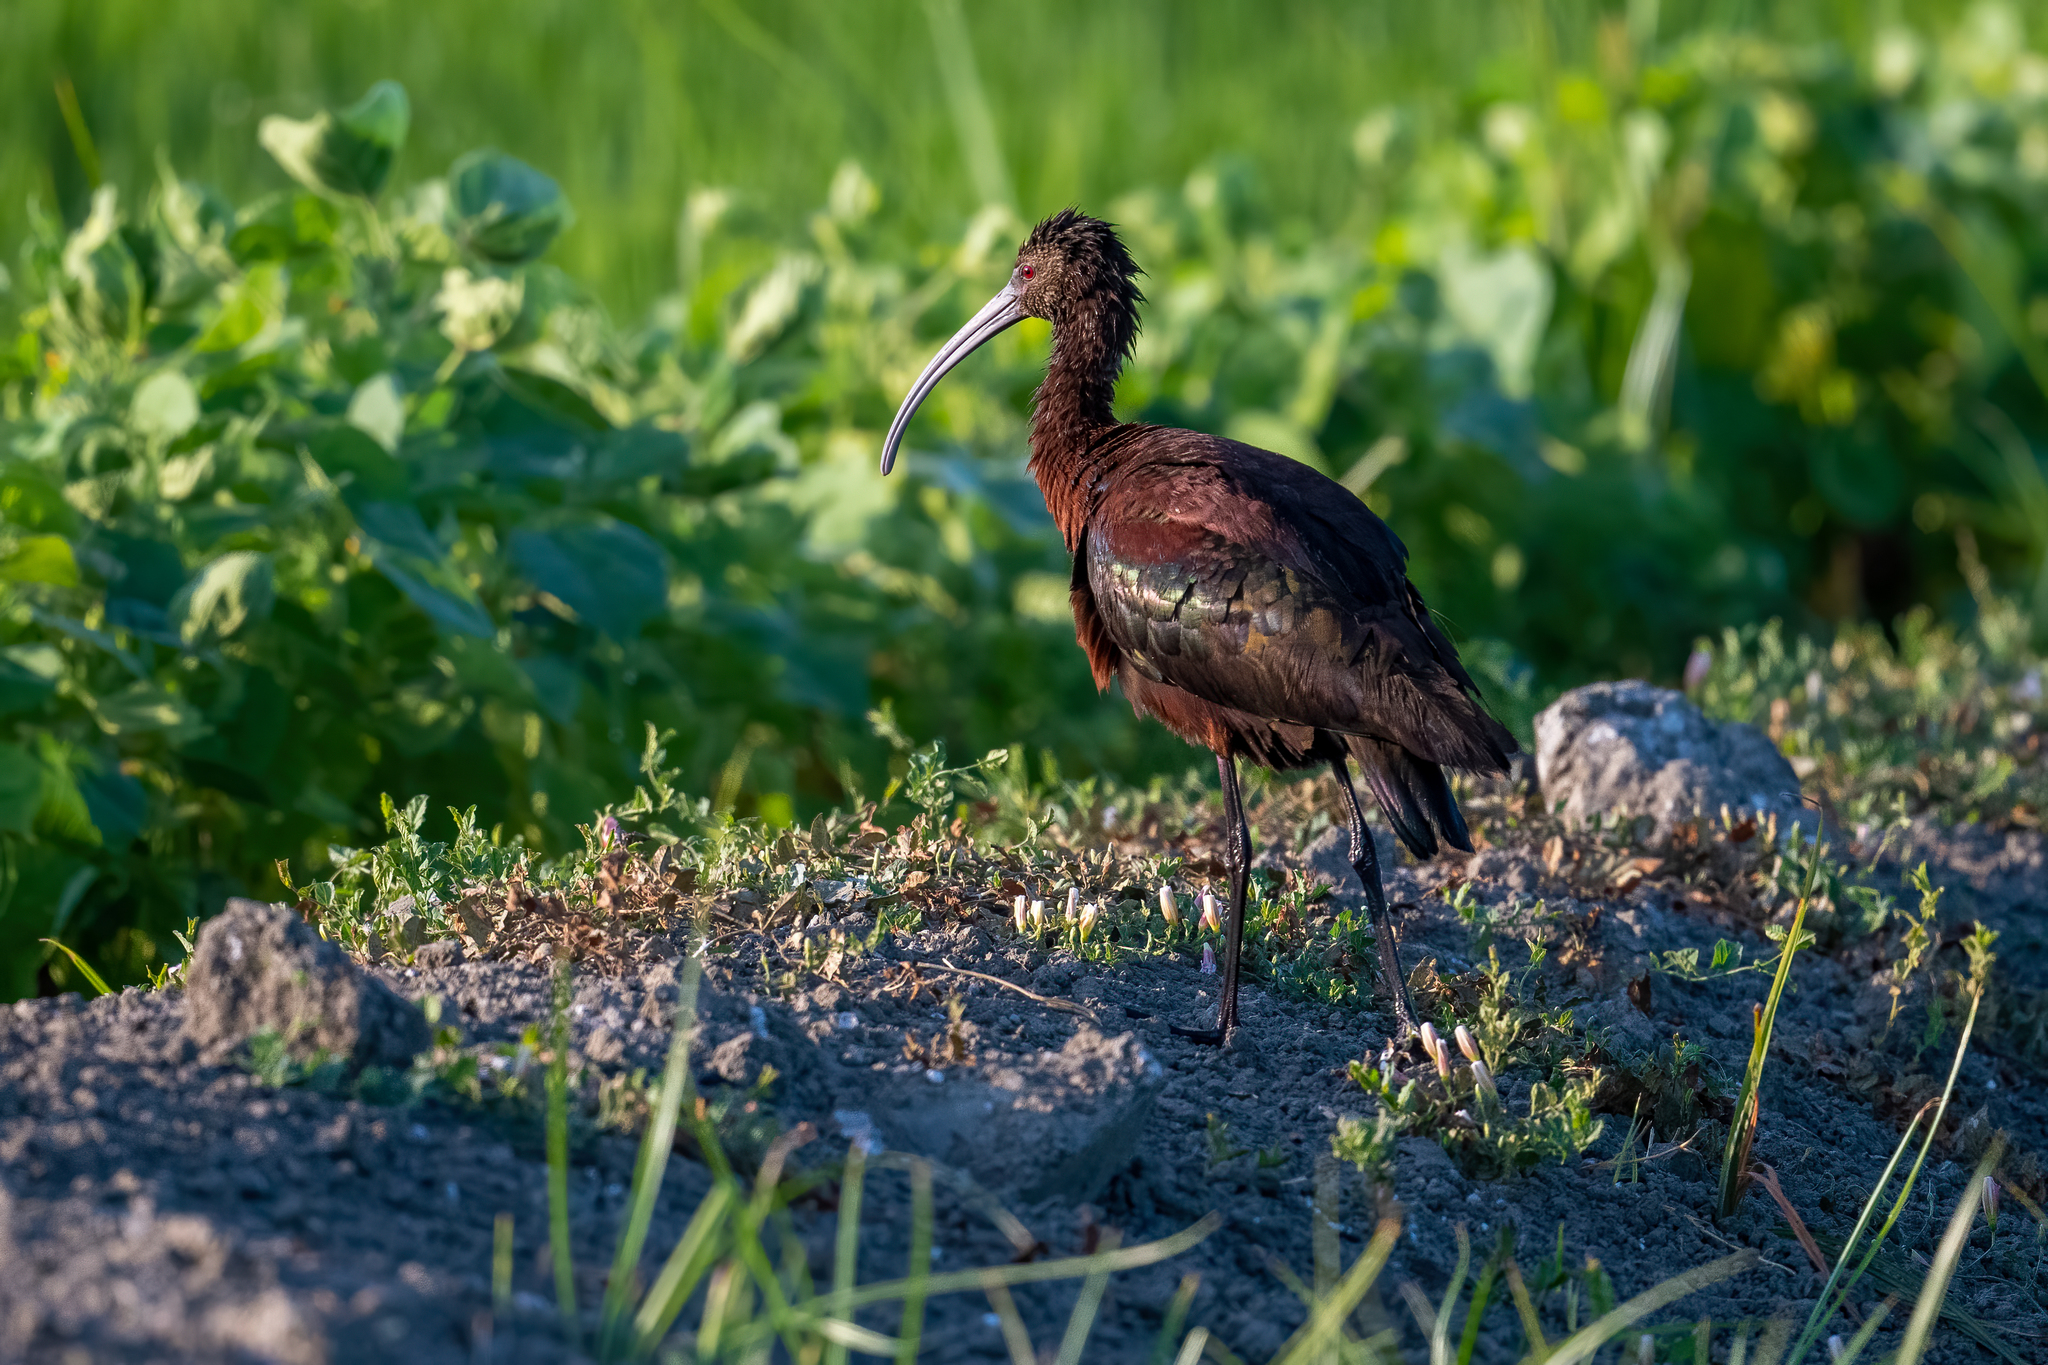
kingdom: Animalia
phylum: Chordata
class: Aves
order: Pelecaniformes
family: Threskiornithidae
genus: Plegadis
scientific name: Plegadis chihi
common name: White-faced ibis
